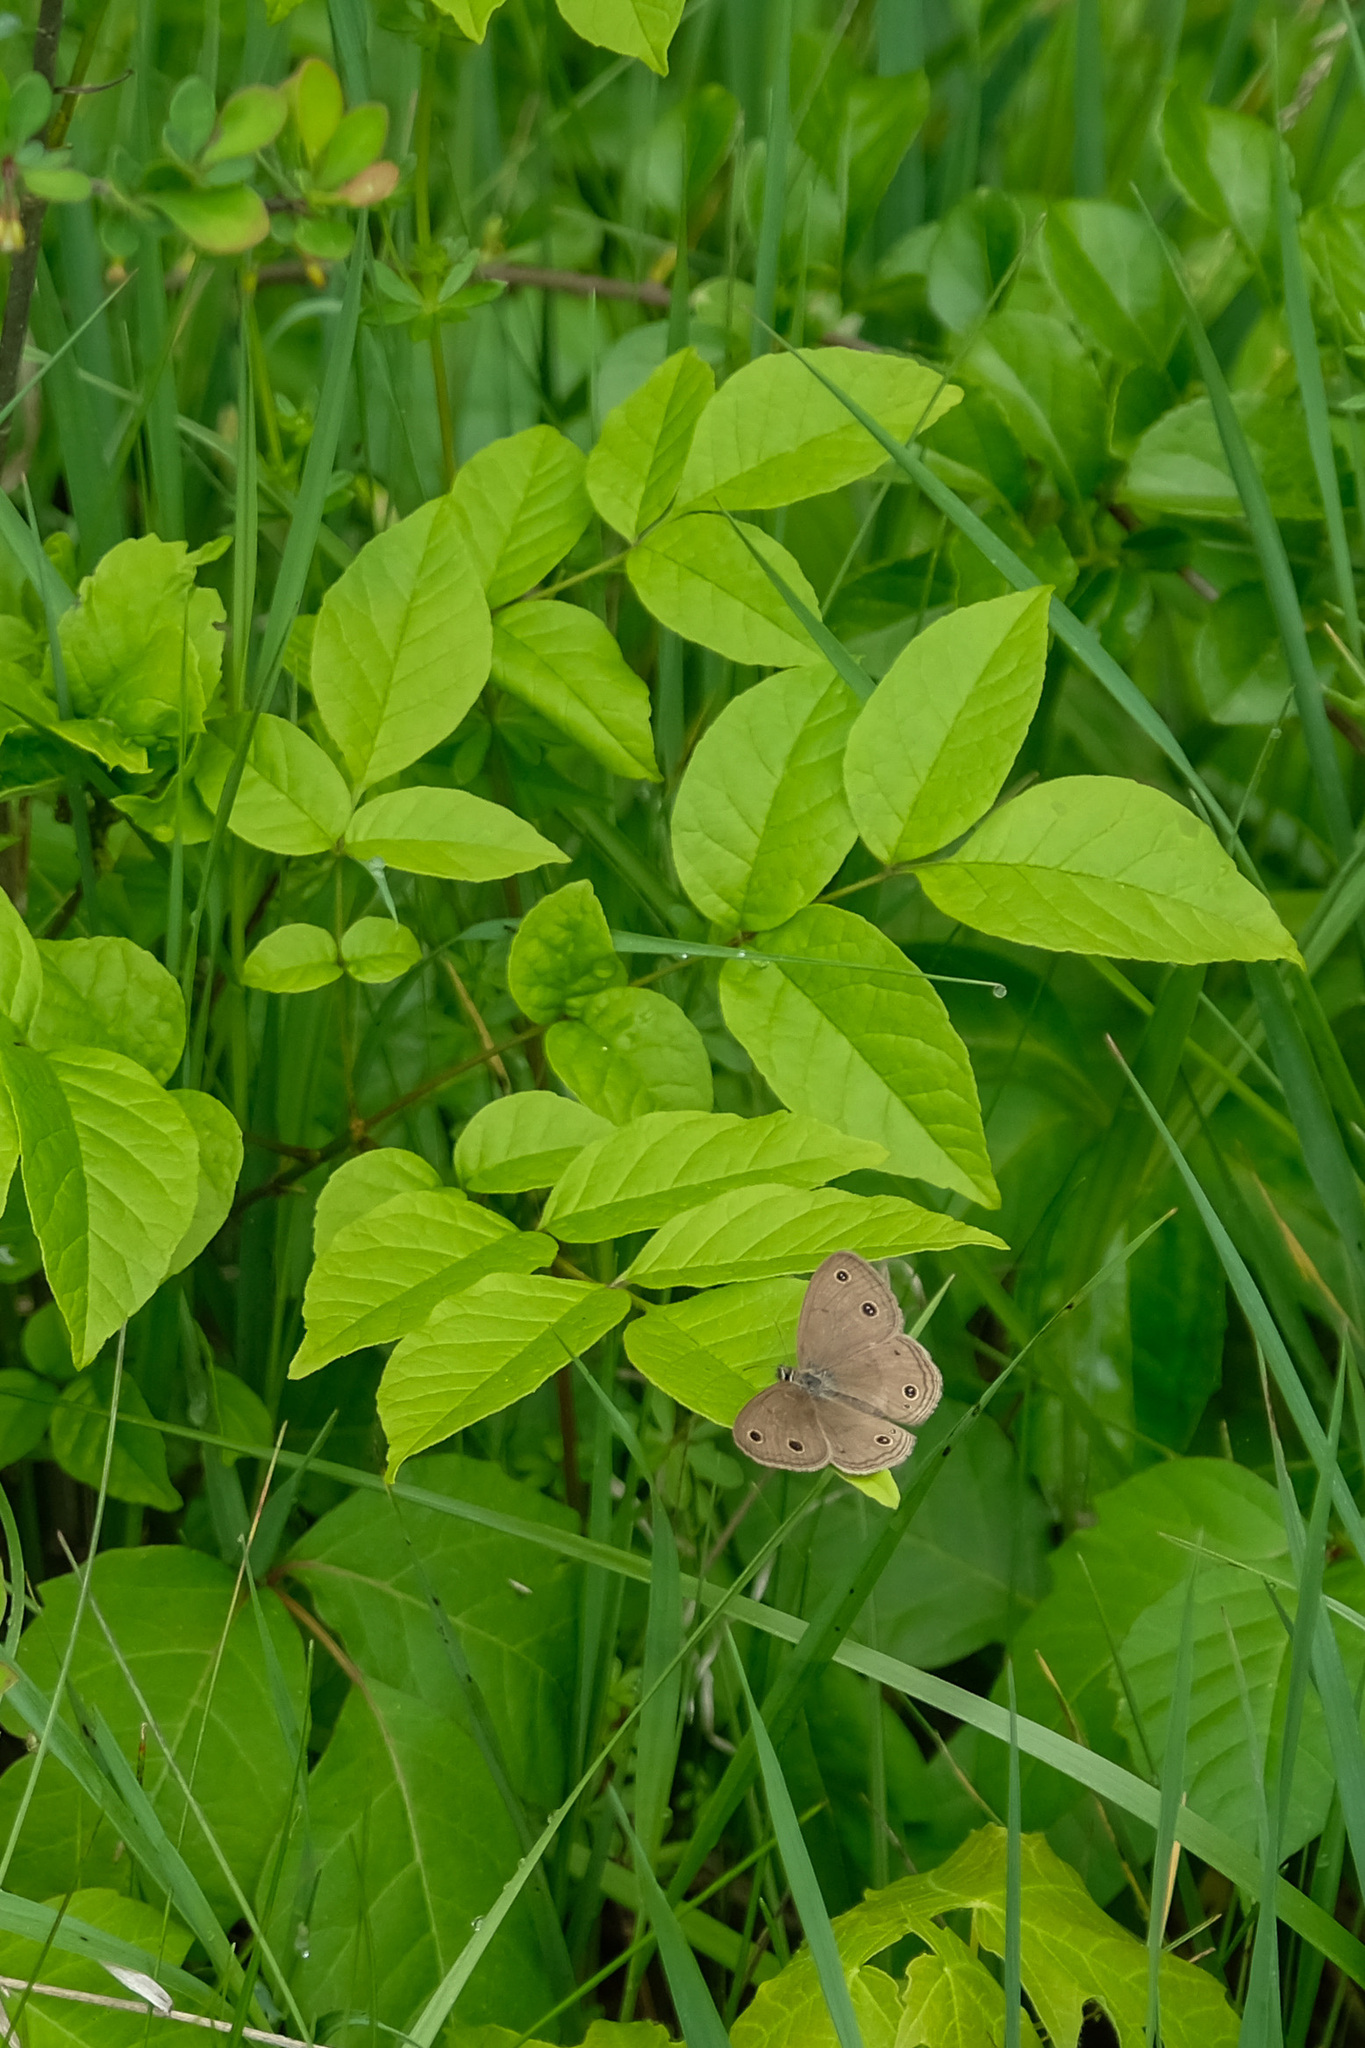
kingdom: Animalia
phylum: Arthropoda
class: Insecta
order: Lepidoptera
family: Nymphalidae
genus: Euptychia
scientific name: Euptychia cymela
